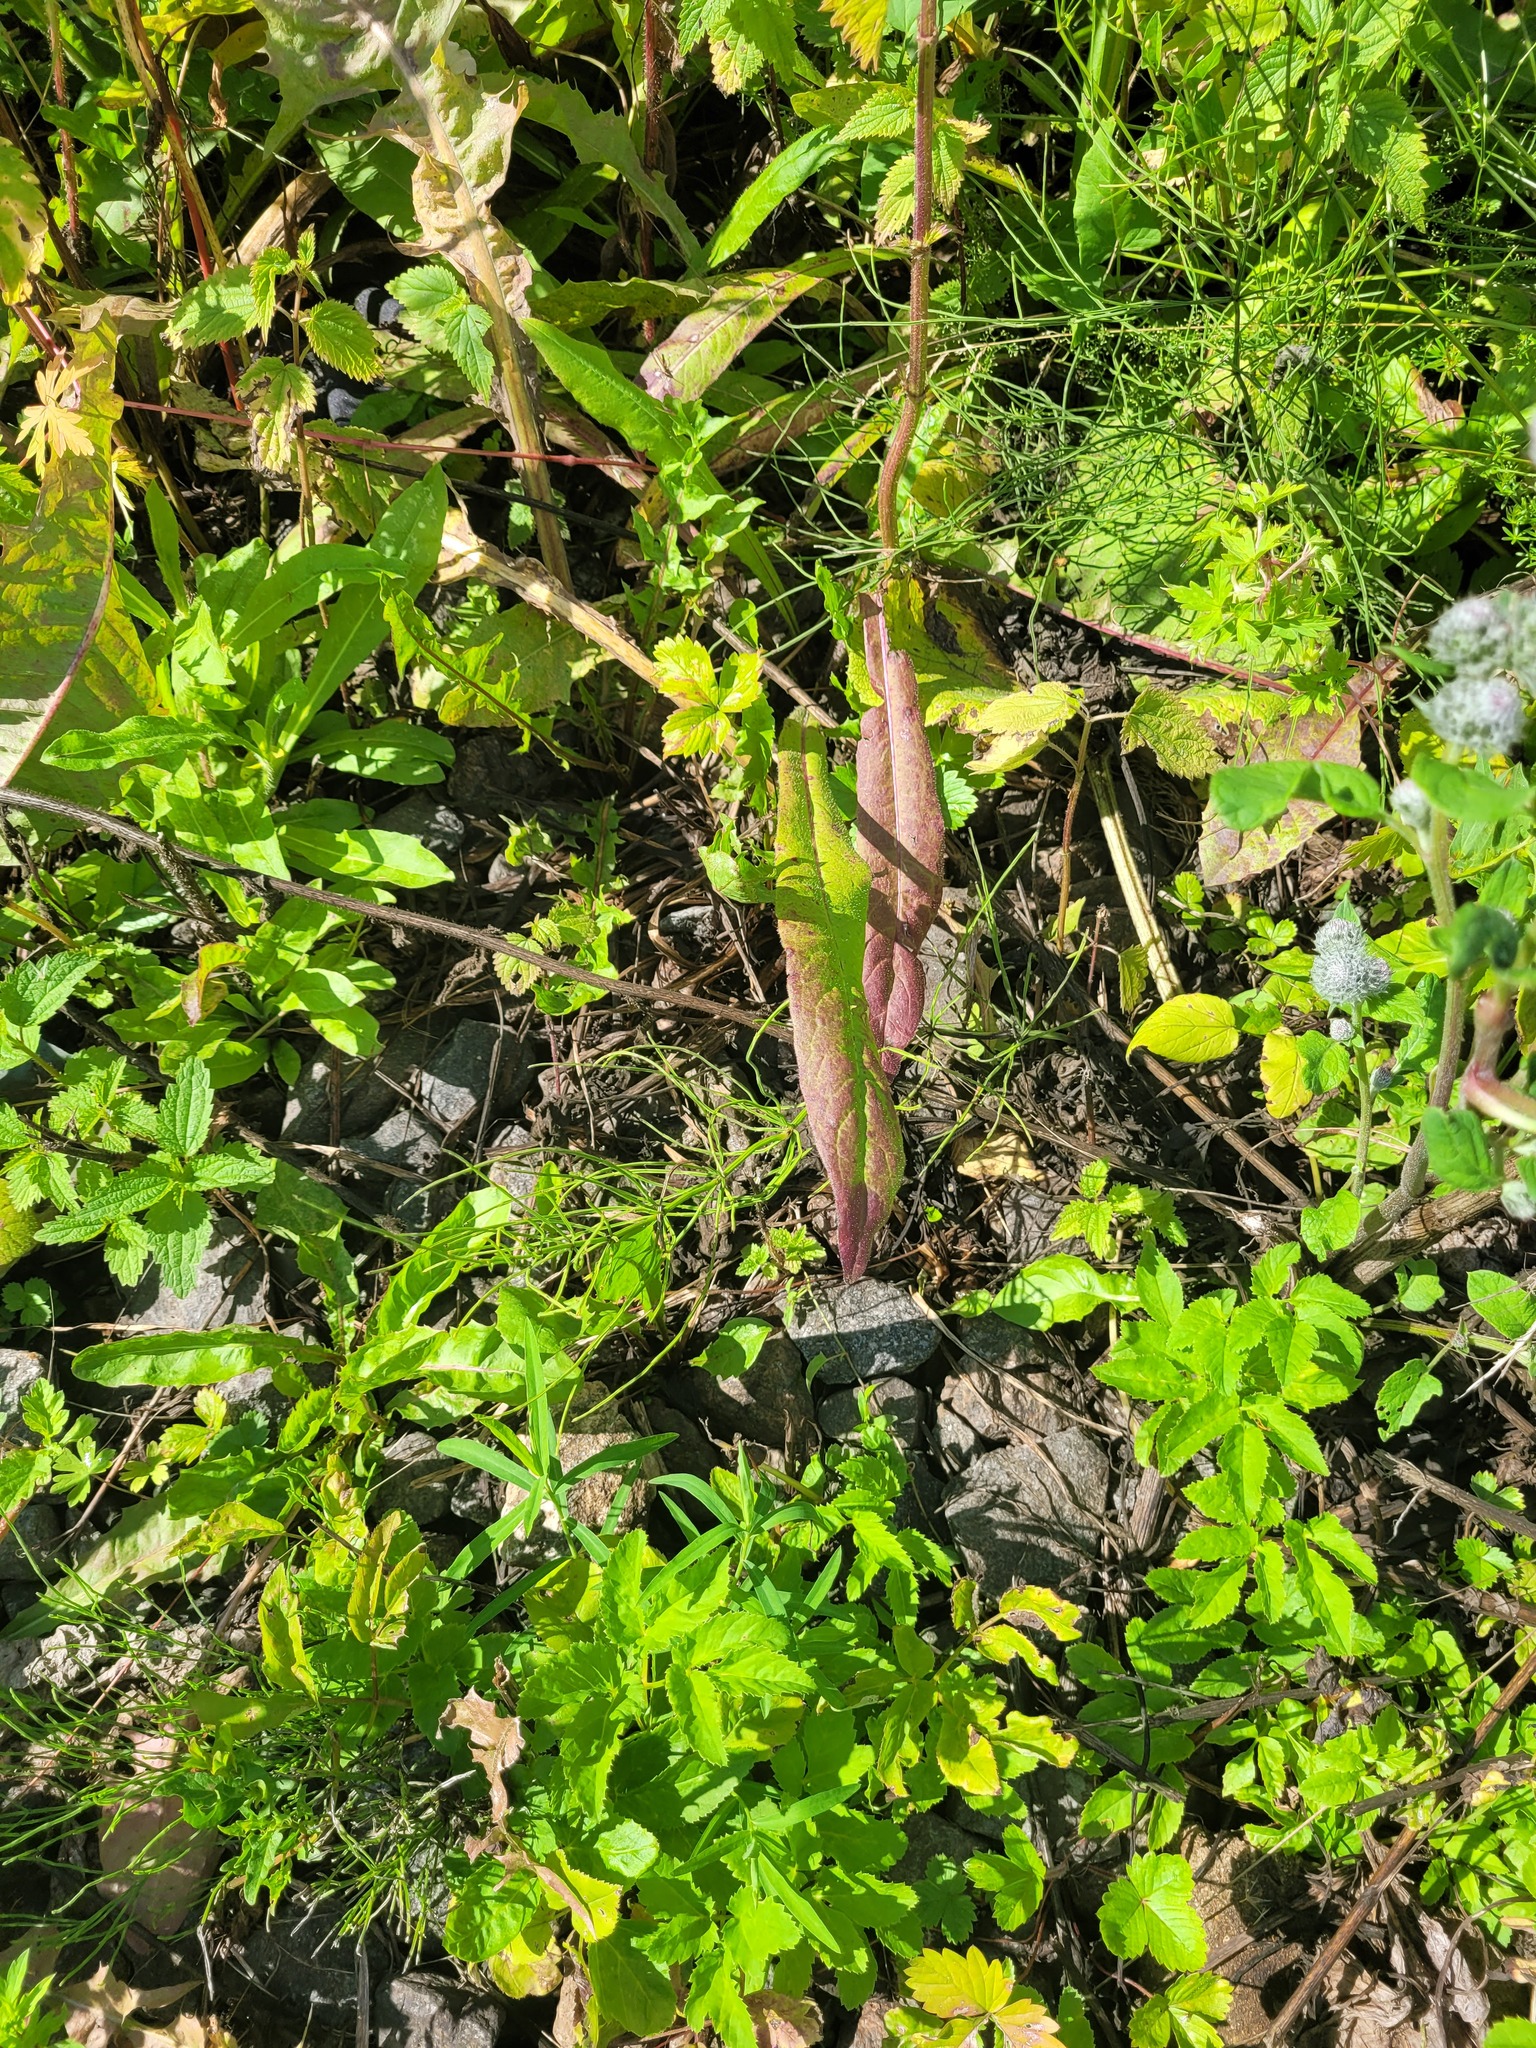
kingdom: Plantae
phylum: Tracheophyta
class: Magnoliopsida
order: Apiales
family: Apiaceae
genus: Aegopodium
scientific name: Aegopodium podagraria
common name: Ground-elder
